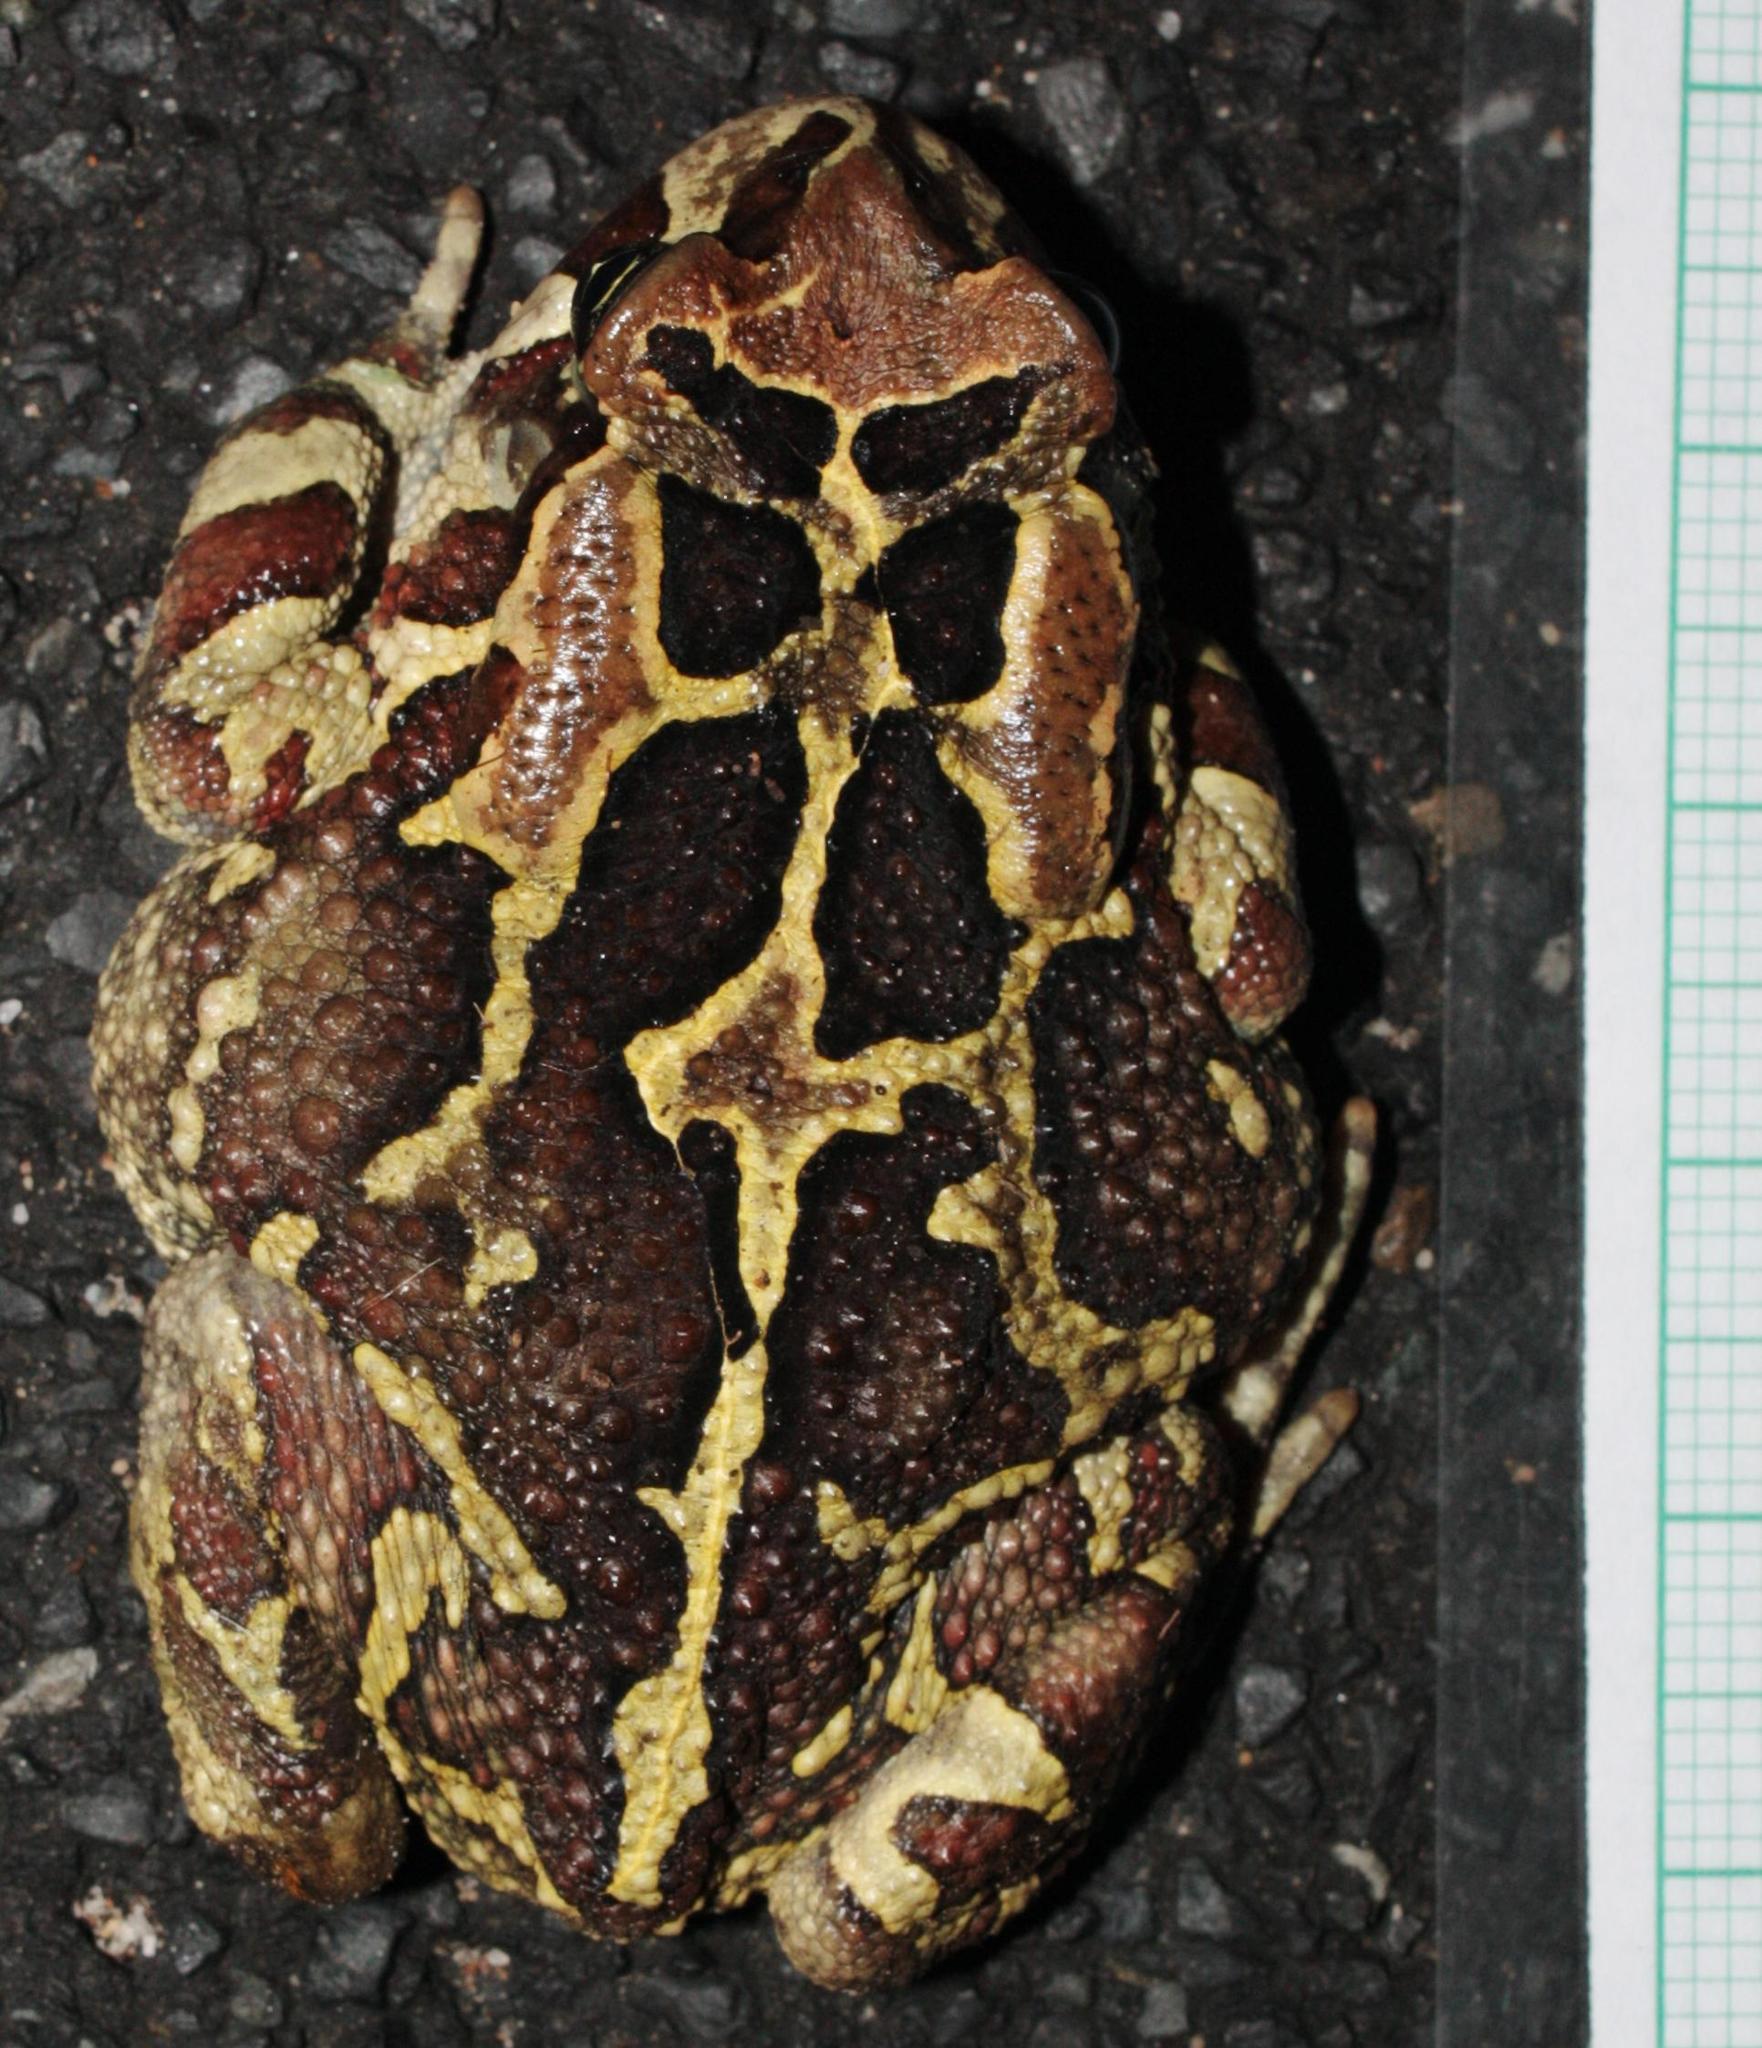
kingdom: Animalia
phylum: Chordata
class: Amphibia
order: Anura
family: Bufonidae
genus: Sclerophrys
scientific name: Sclerophrys pantherina
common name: Panther toad
